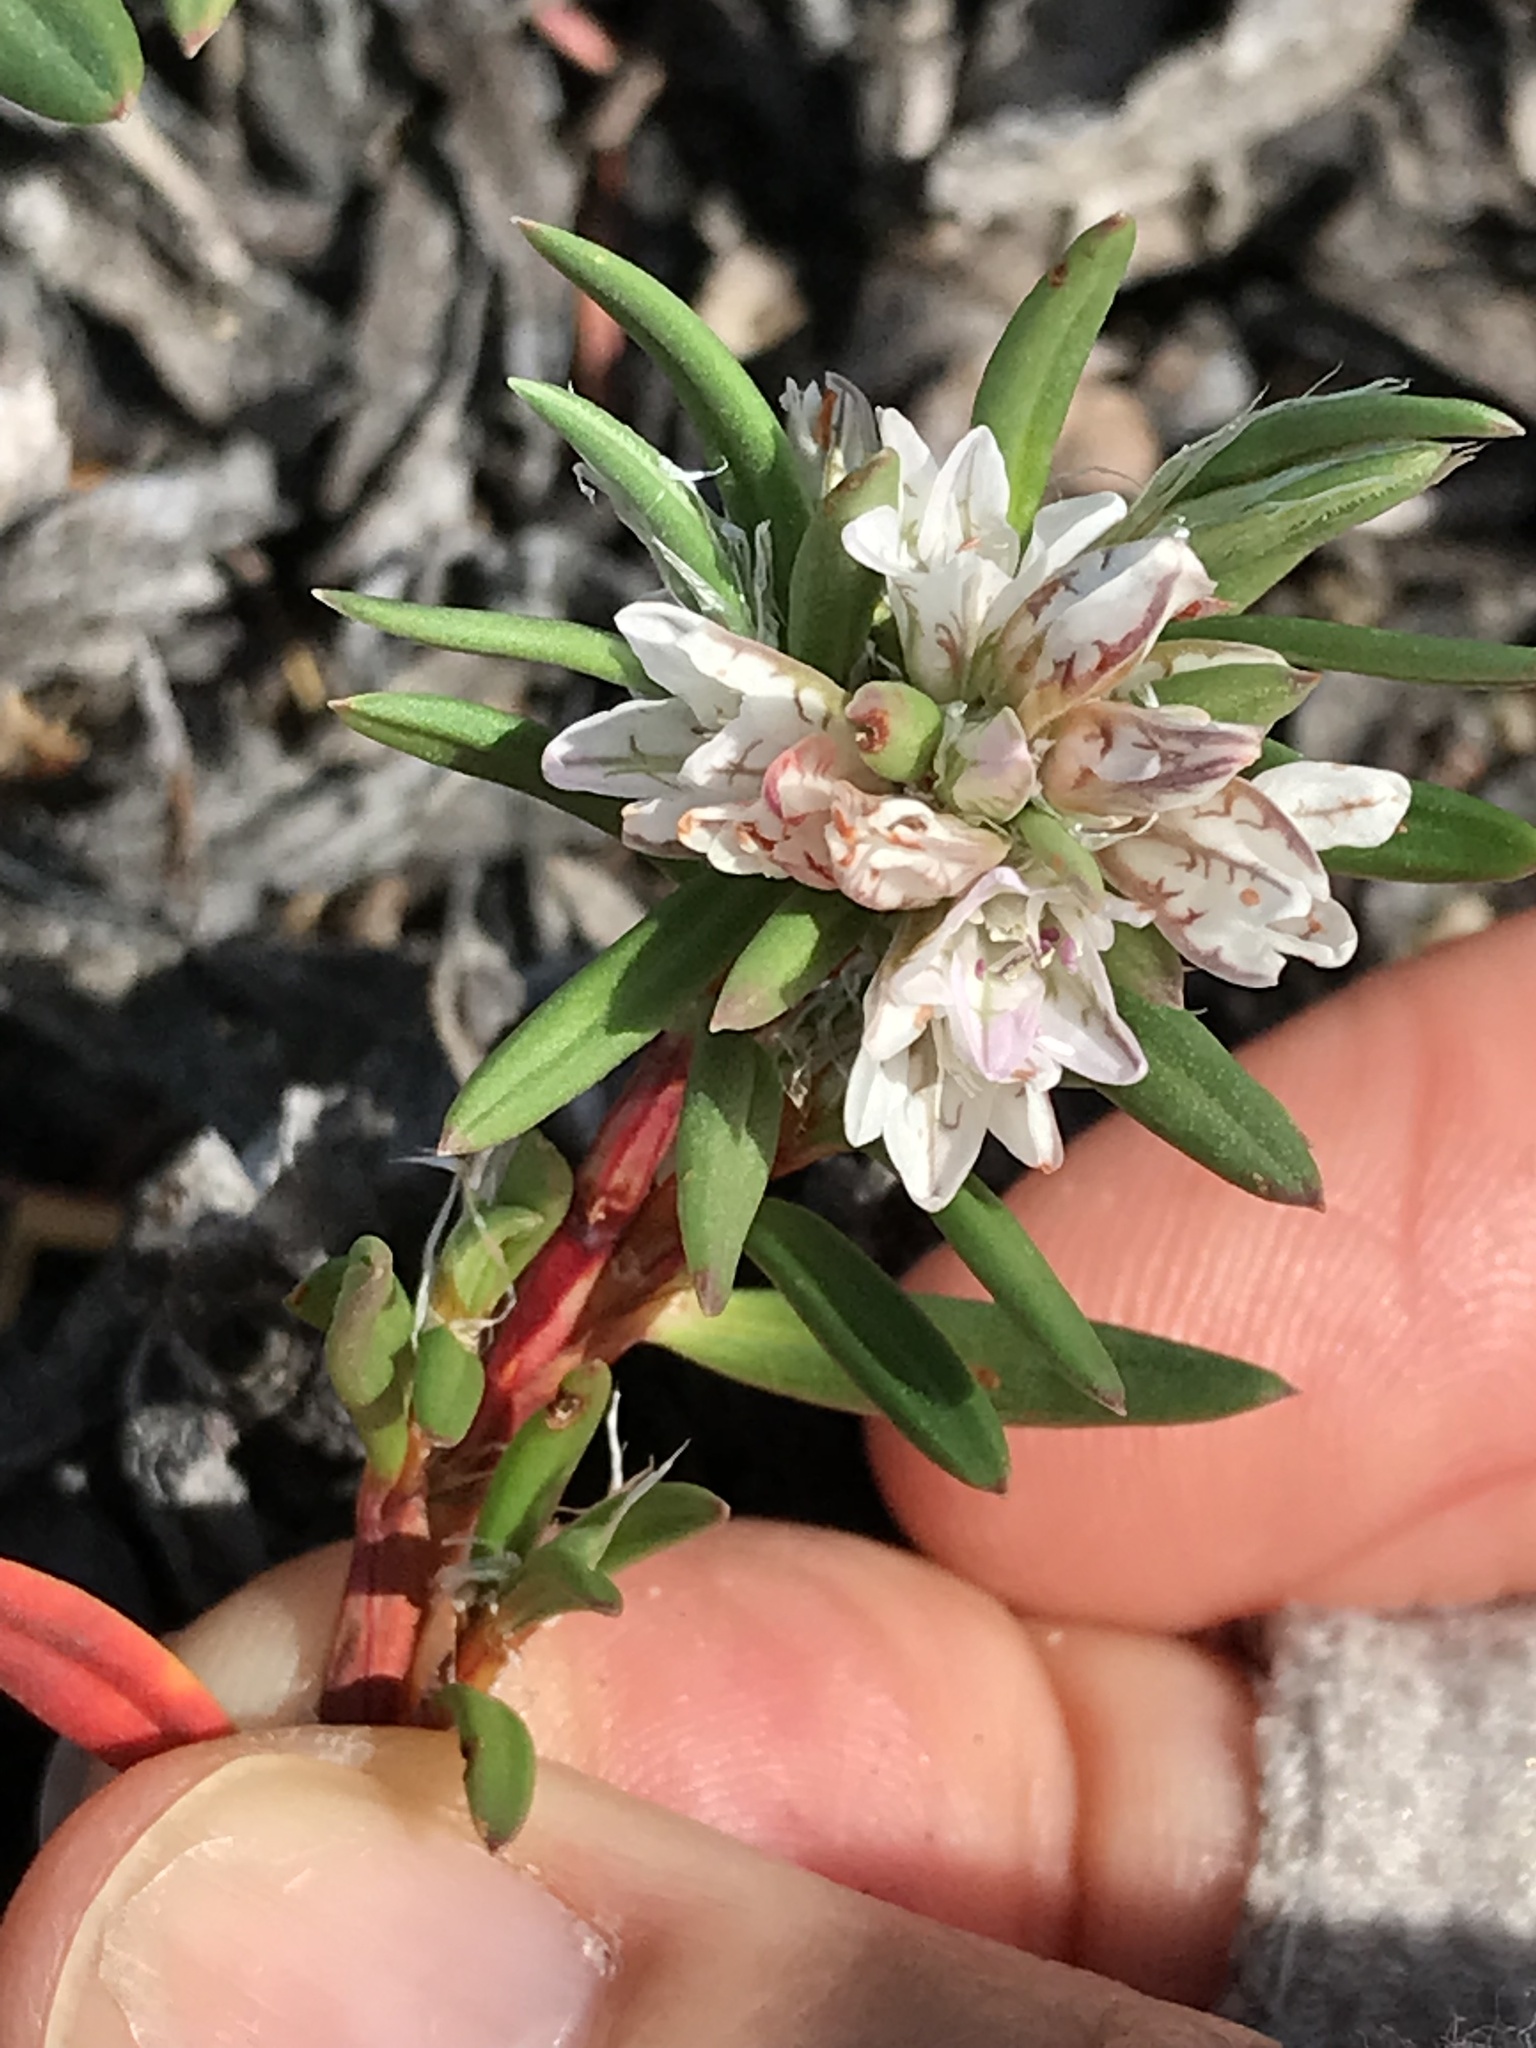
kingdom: Plantae
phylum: Tracheophyta
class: Magnoliopsida
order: Caryophyllales
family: Polygonaceae
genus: Polygonum
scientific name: Polygonum paronychia
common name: Dune knotweed
